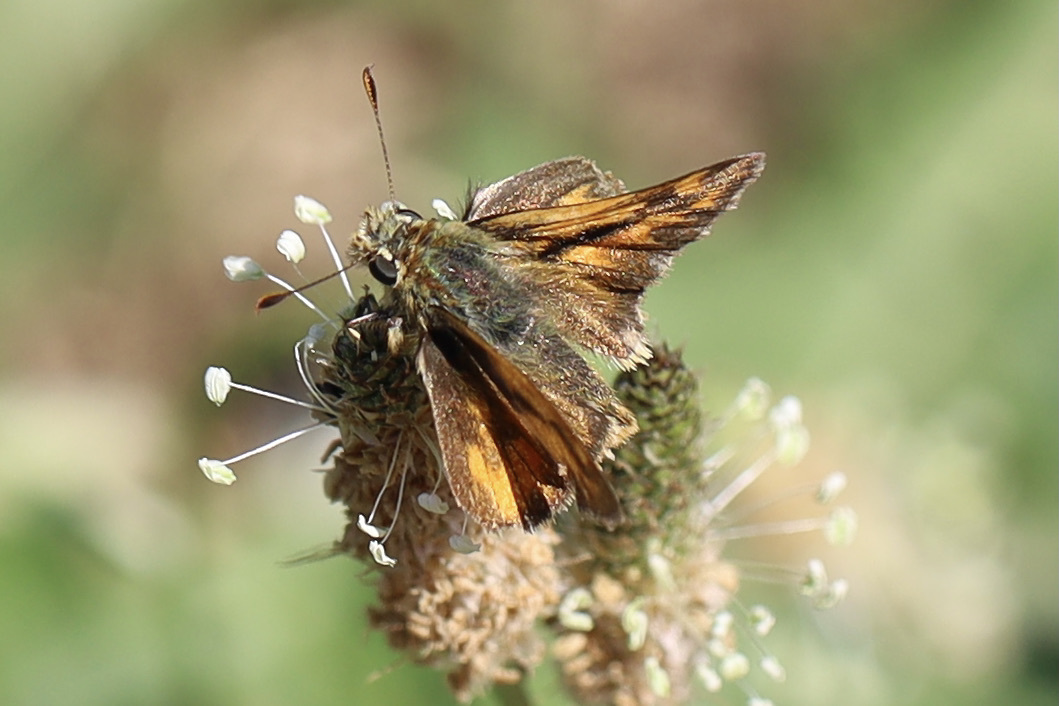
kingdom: Animalia
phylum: Arthropoda
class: Insecta
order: Lepidoptera
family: Hesperiidae
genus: Ochlodes
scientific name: Ochlodes sylvanoides
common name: Woodland skipper
